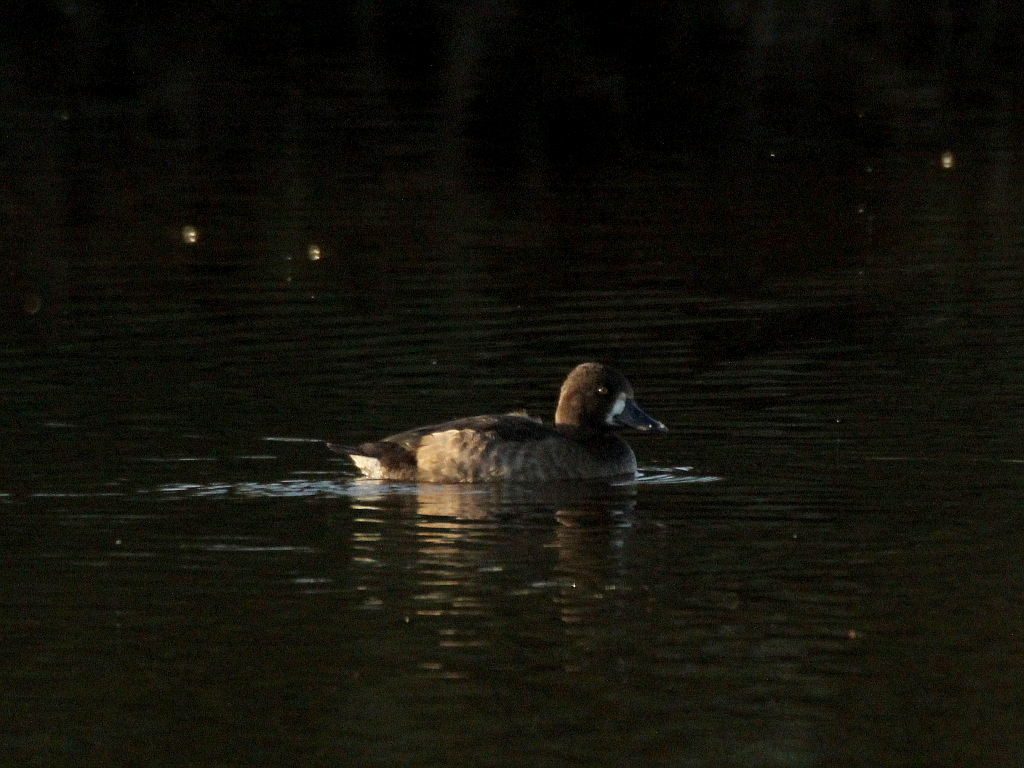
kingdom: Animalia
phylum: Chordata
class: Aves
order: Anseriformes
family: Anatidae
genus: Aythya
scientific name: Aythya fuligula
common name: Tufted duck
